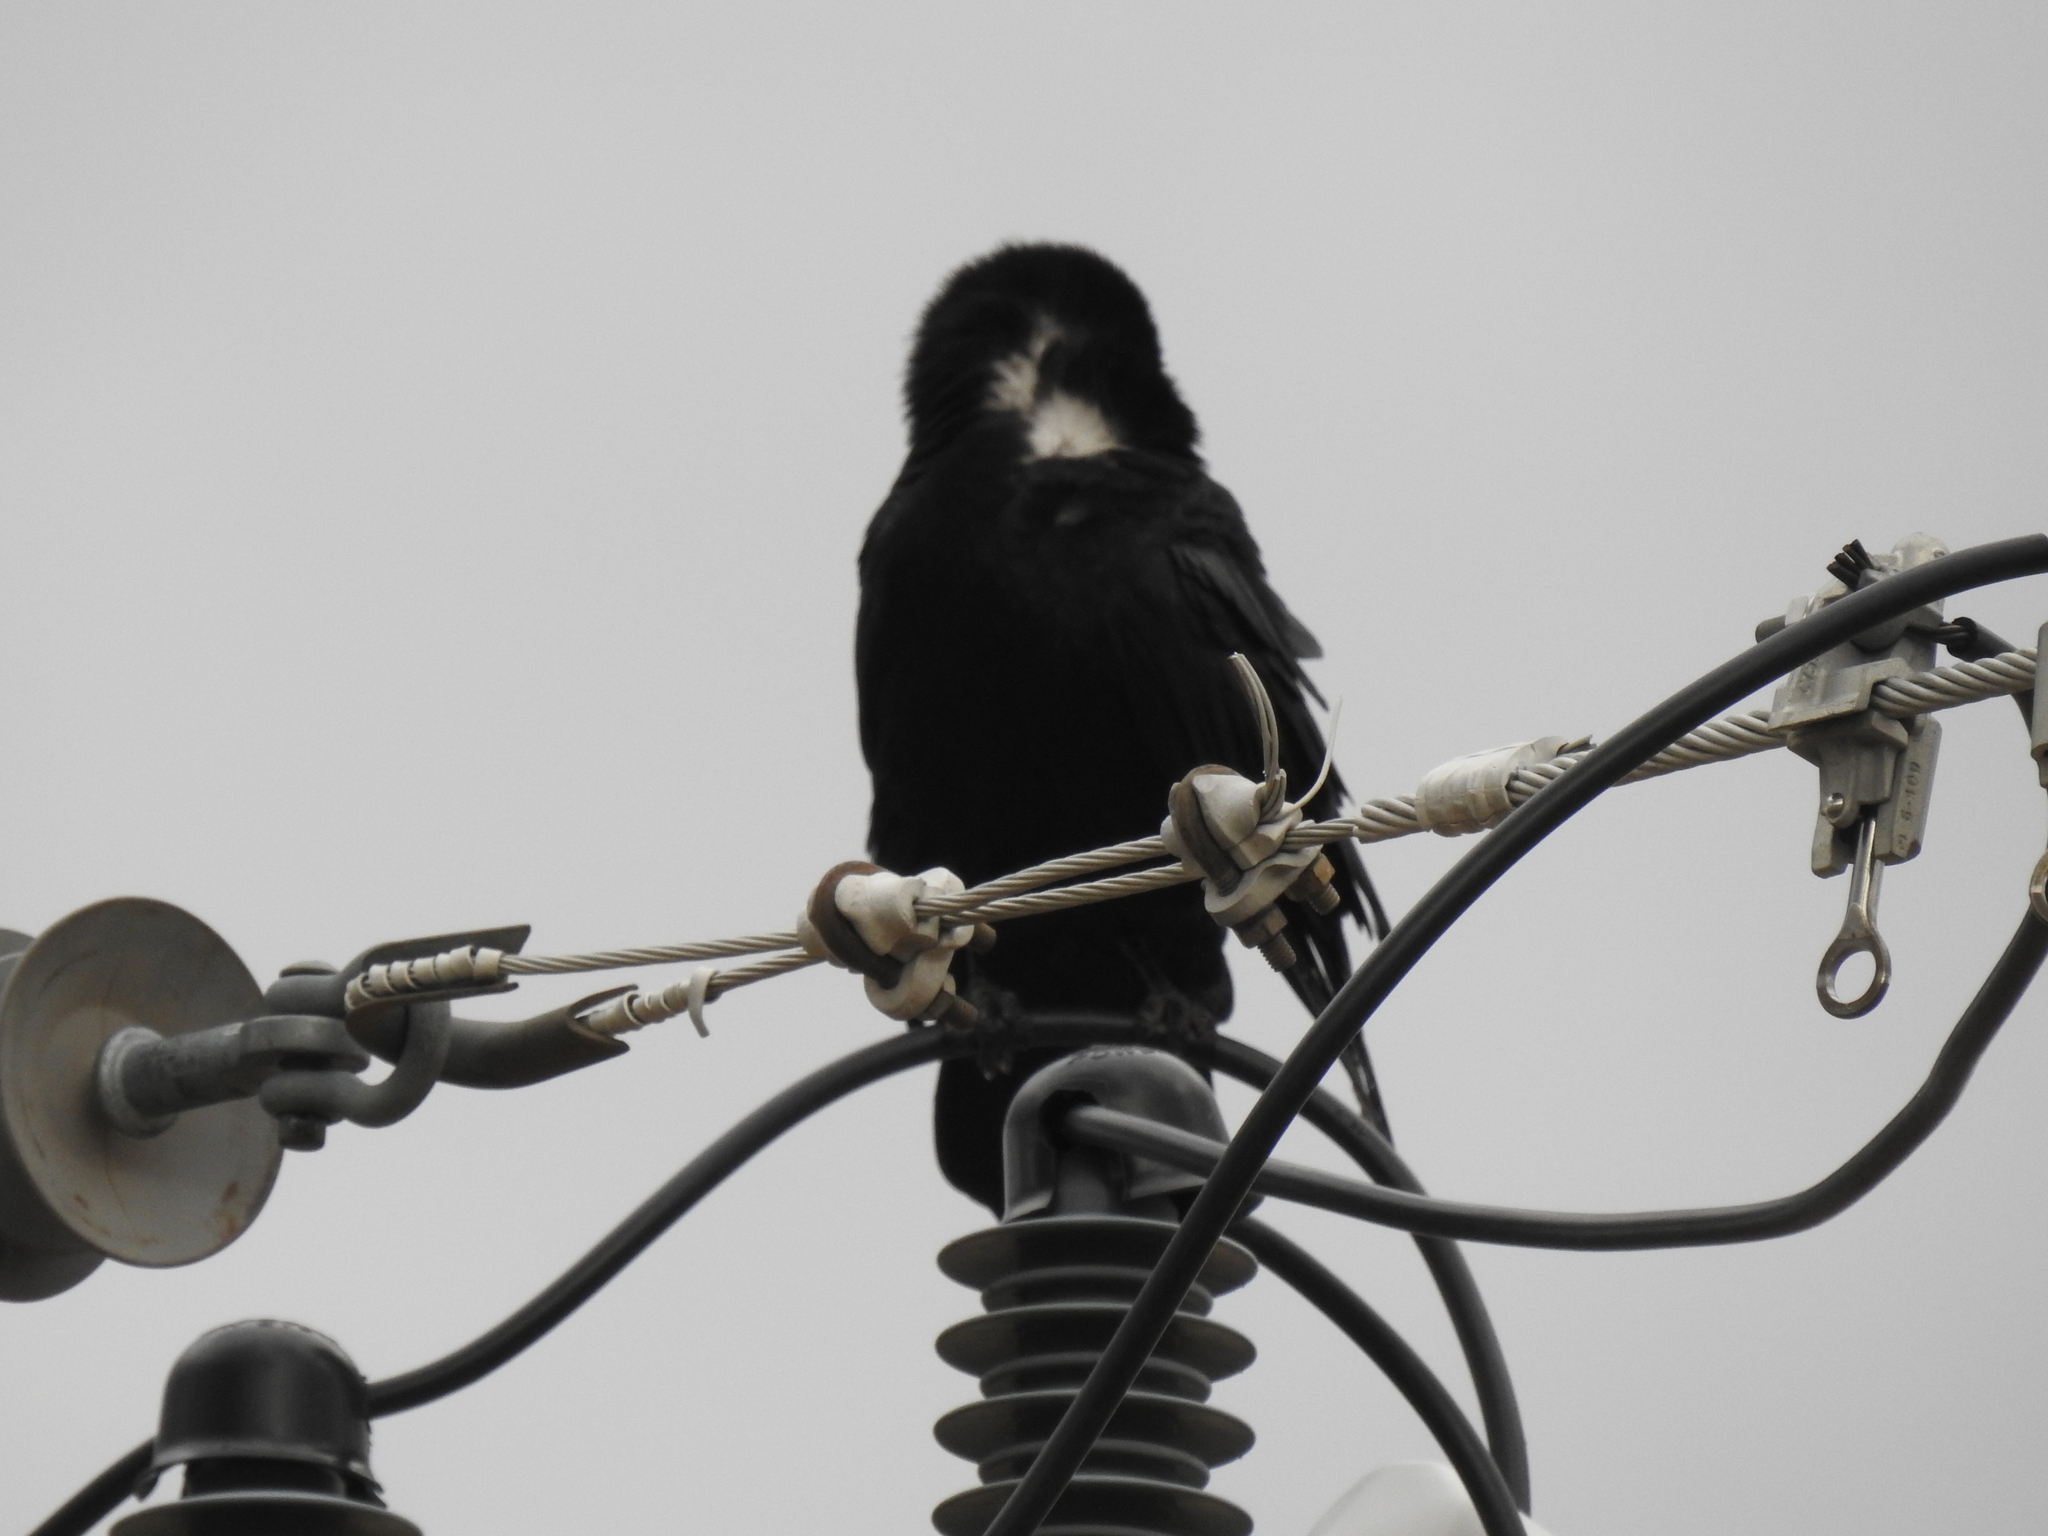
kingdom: Animalia
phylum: Chordata
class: Aves
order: Passeriformes
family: Corvidae
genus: Corvus
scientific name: Corvus cryptoleucus
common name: Chihuahuan raven
